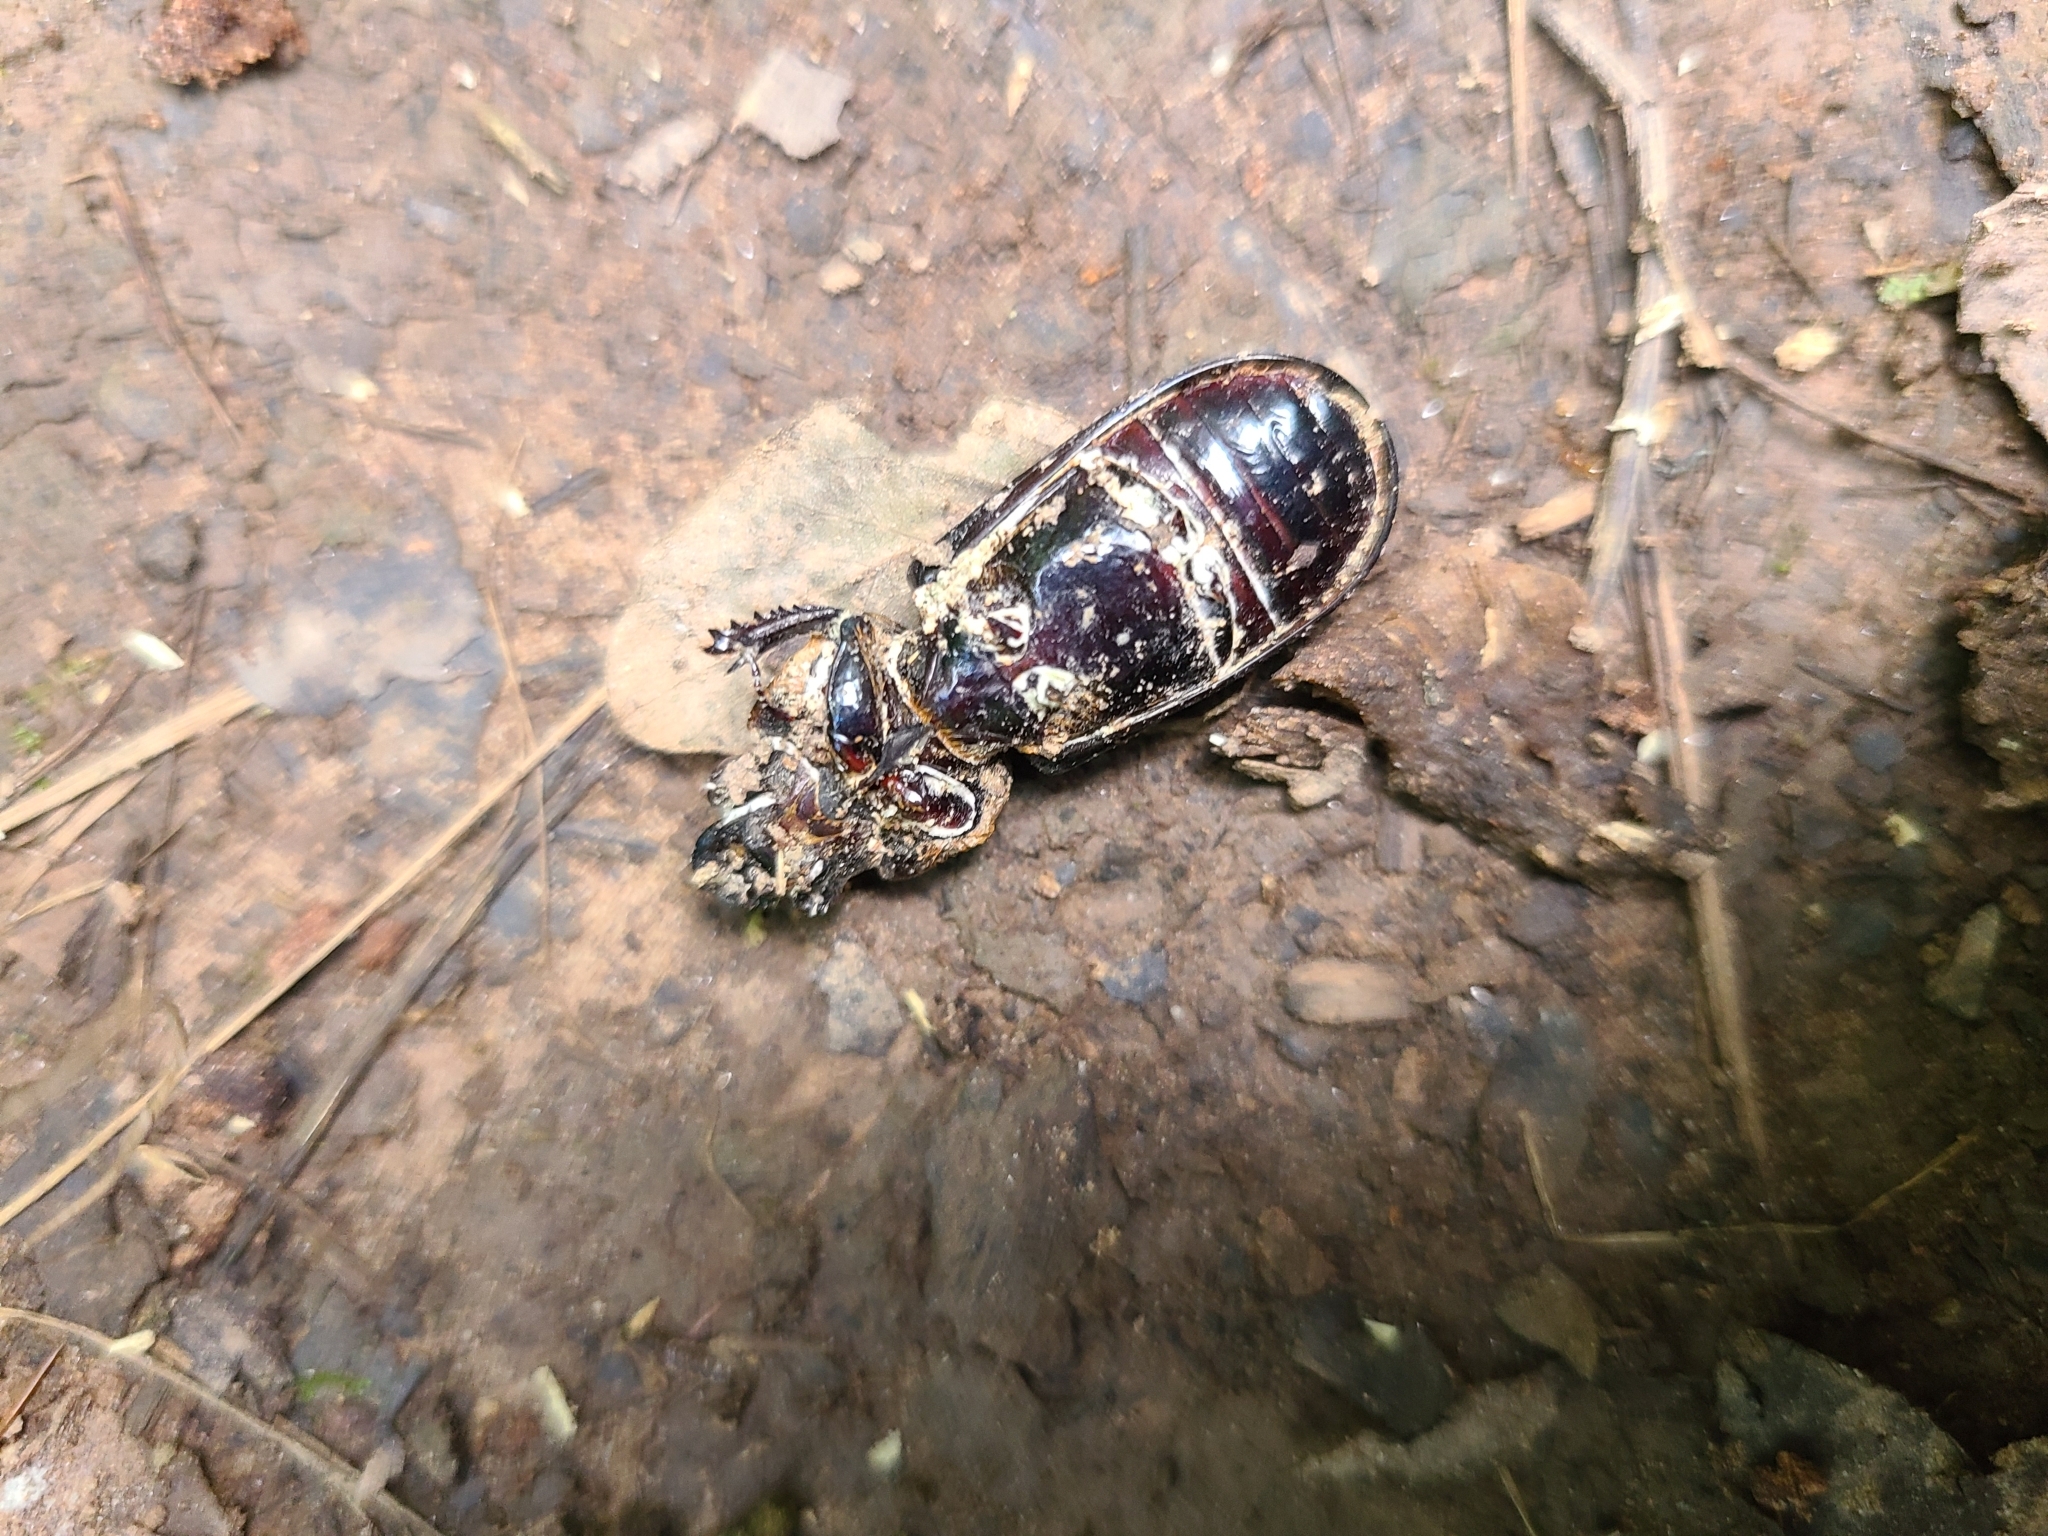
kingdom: Animalia
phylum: Arthropoda
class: Insecta
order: Coleoptera
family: Passalidae
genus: Odontotaenius
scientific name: Odontotaenius disjunctus
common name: Patent leather beetle
